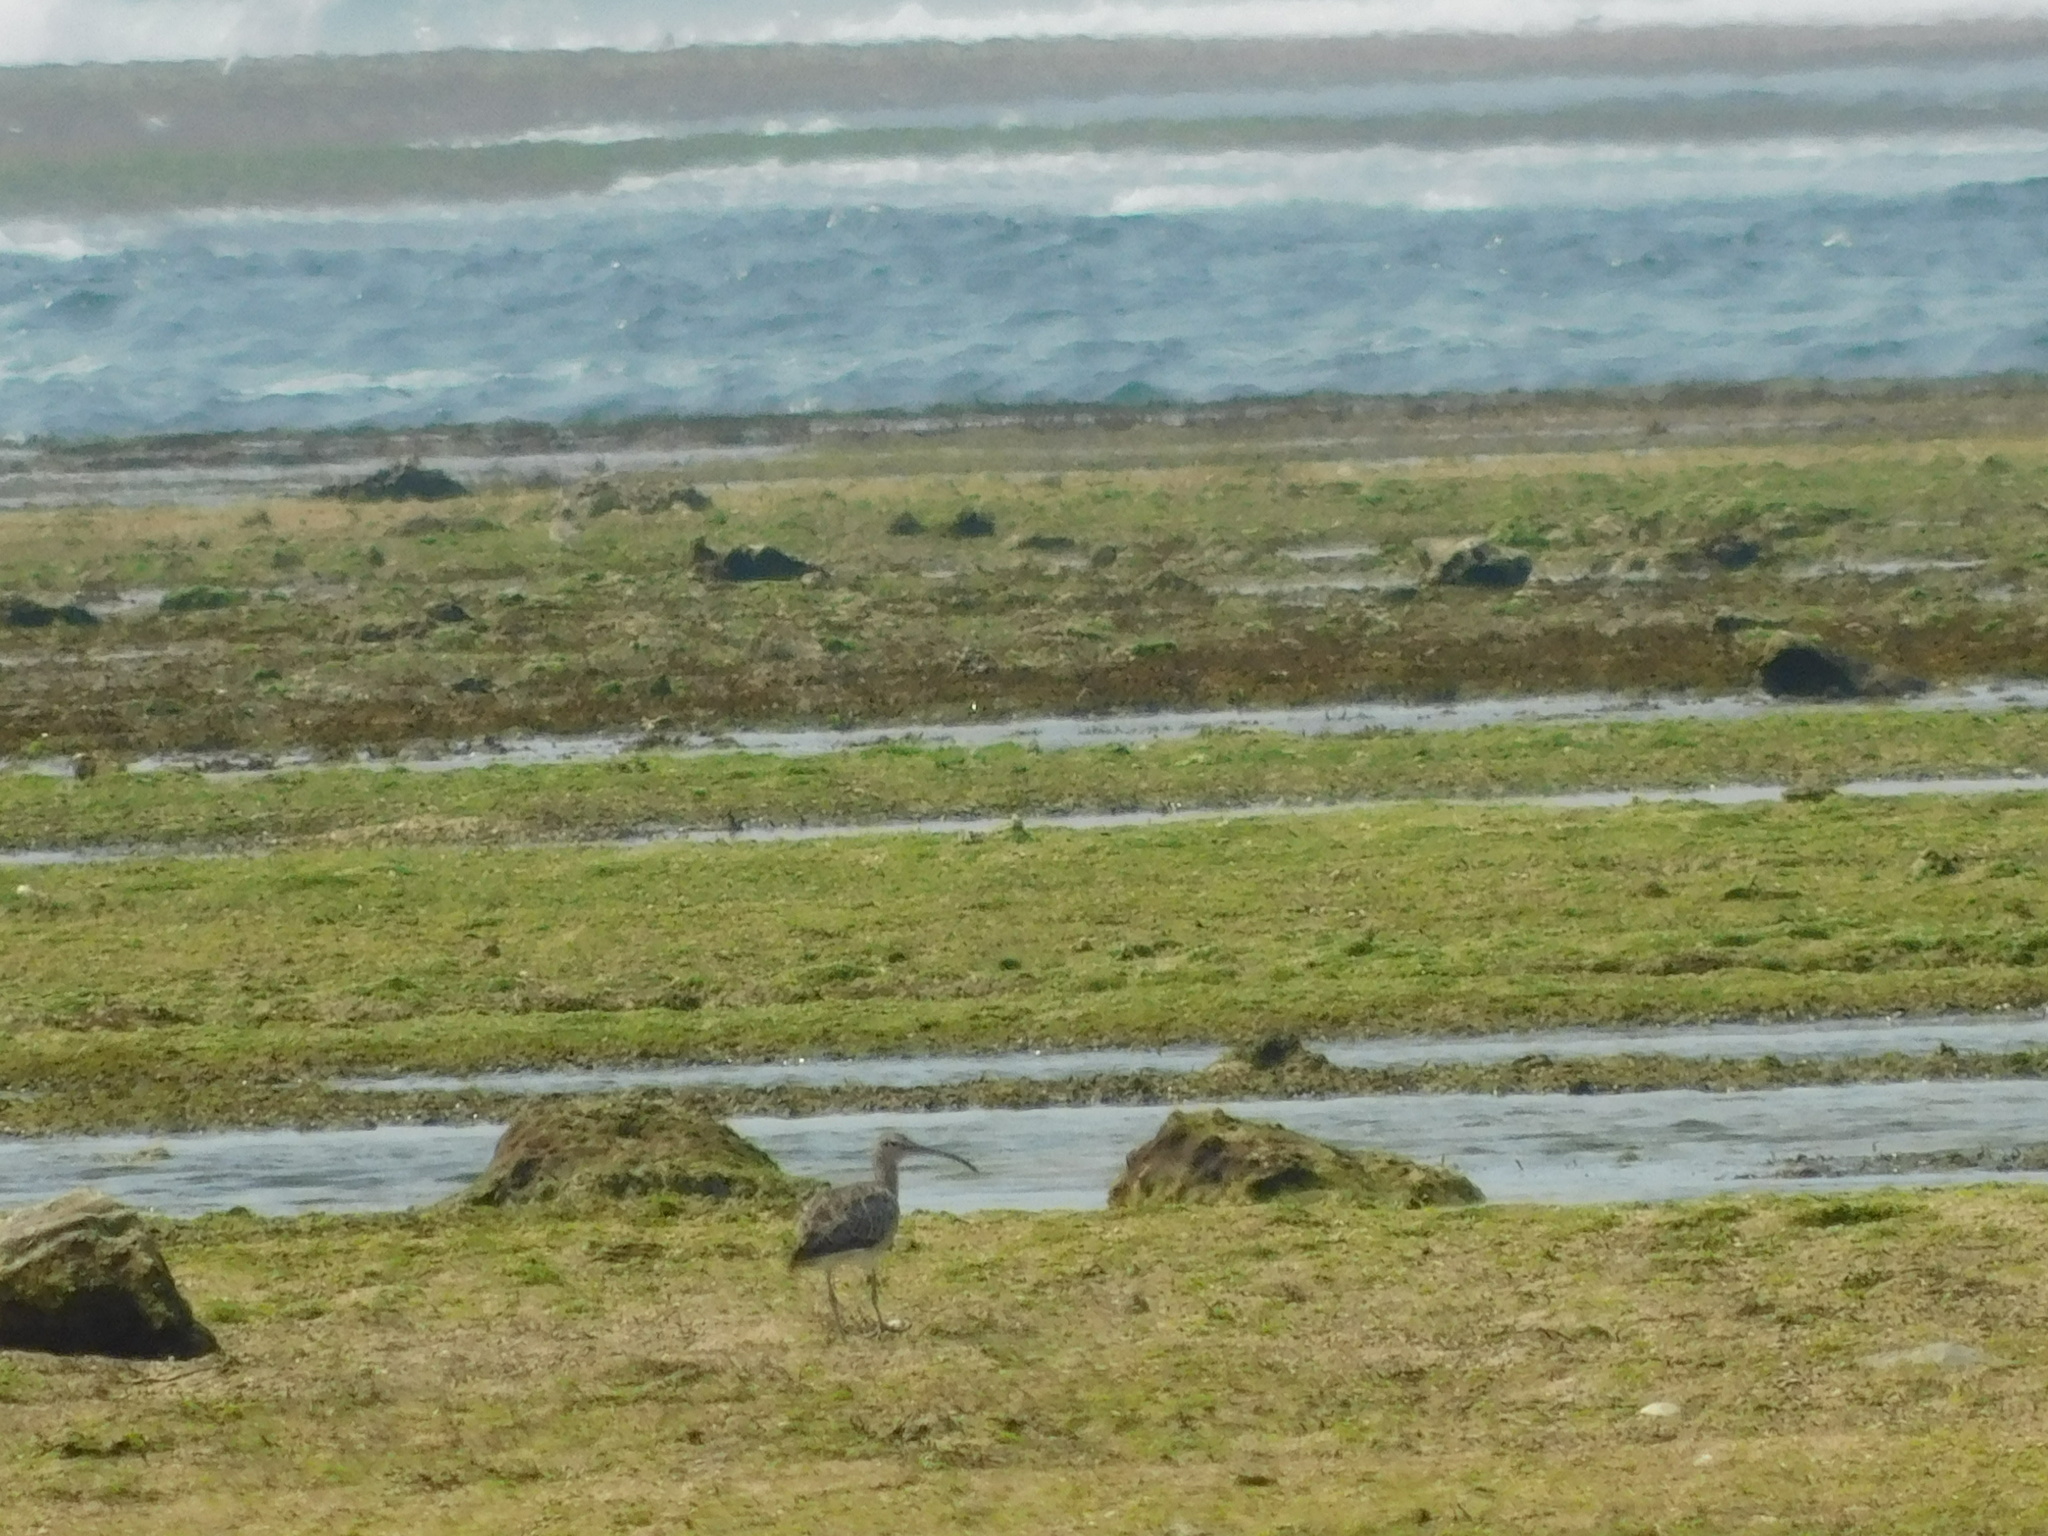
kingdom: Animalia
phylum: Chordata
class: Aves
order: Charadriiformes
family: Scolopacidae
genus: Numenius
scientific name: Numenius phaeopus
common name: Whimbrel
